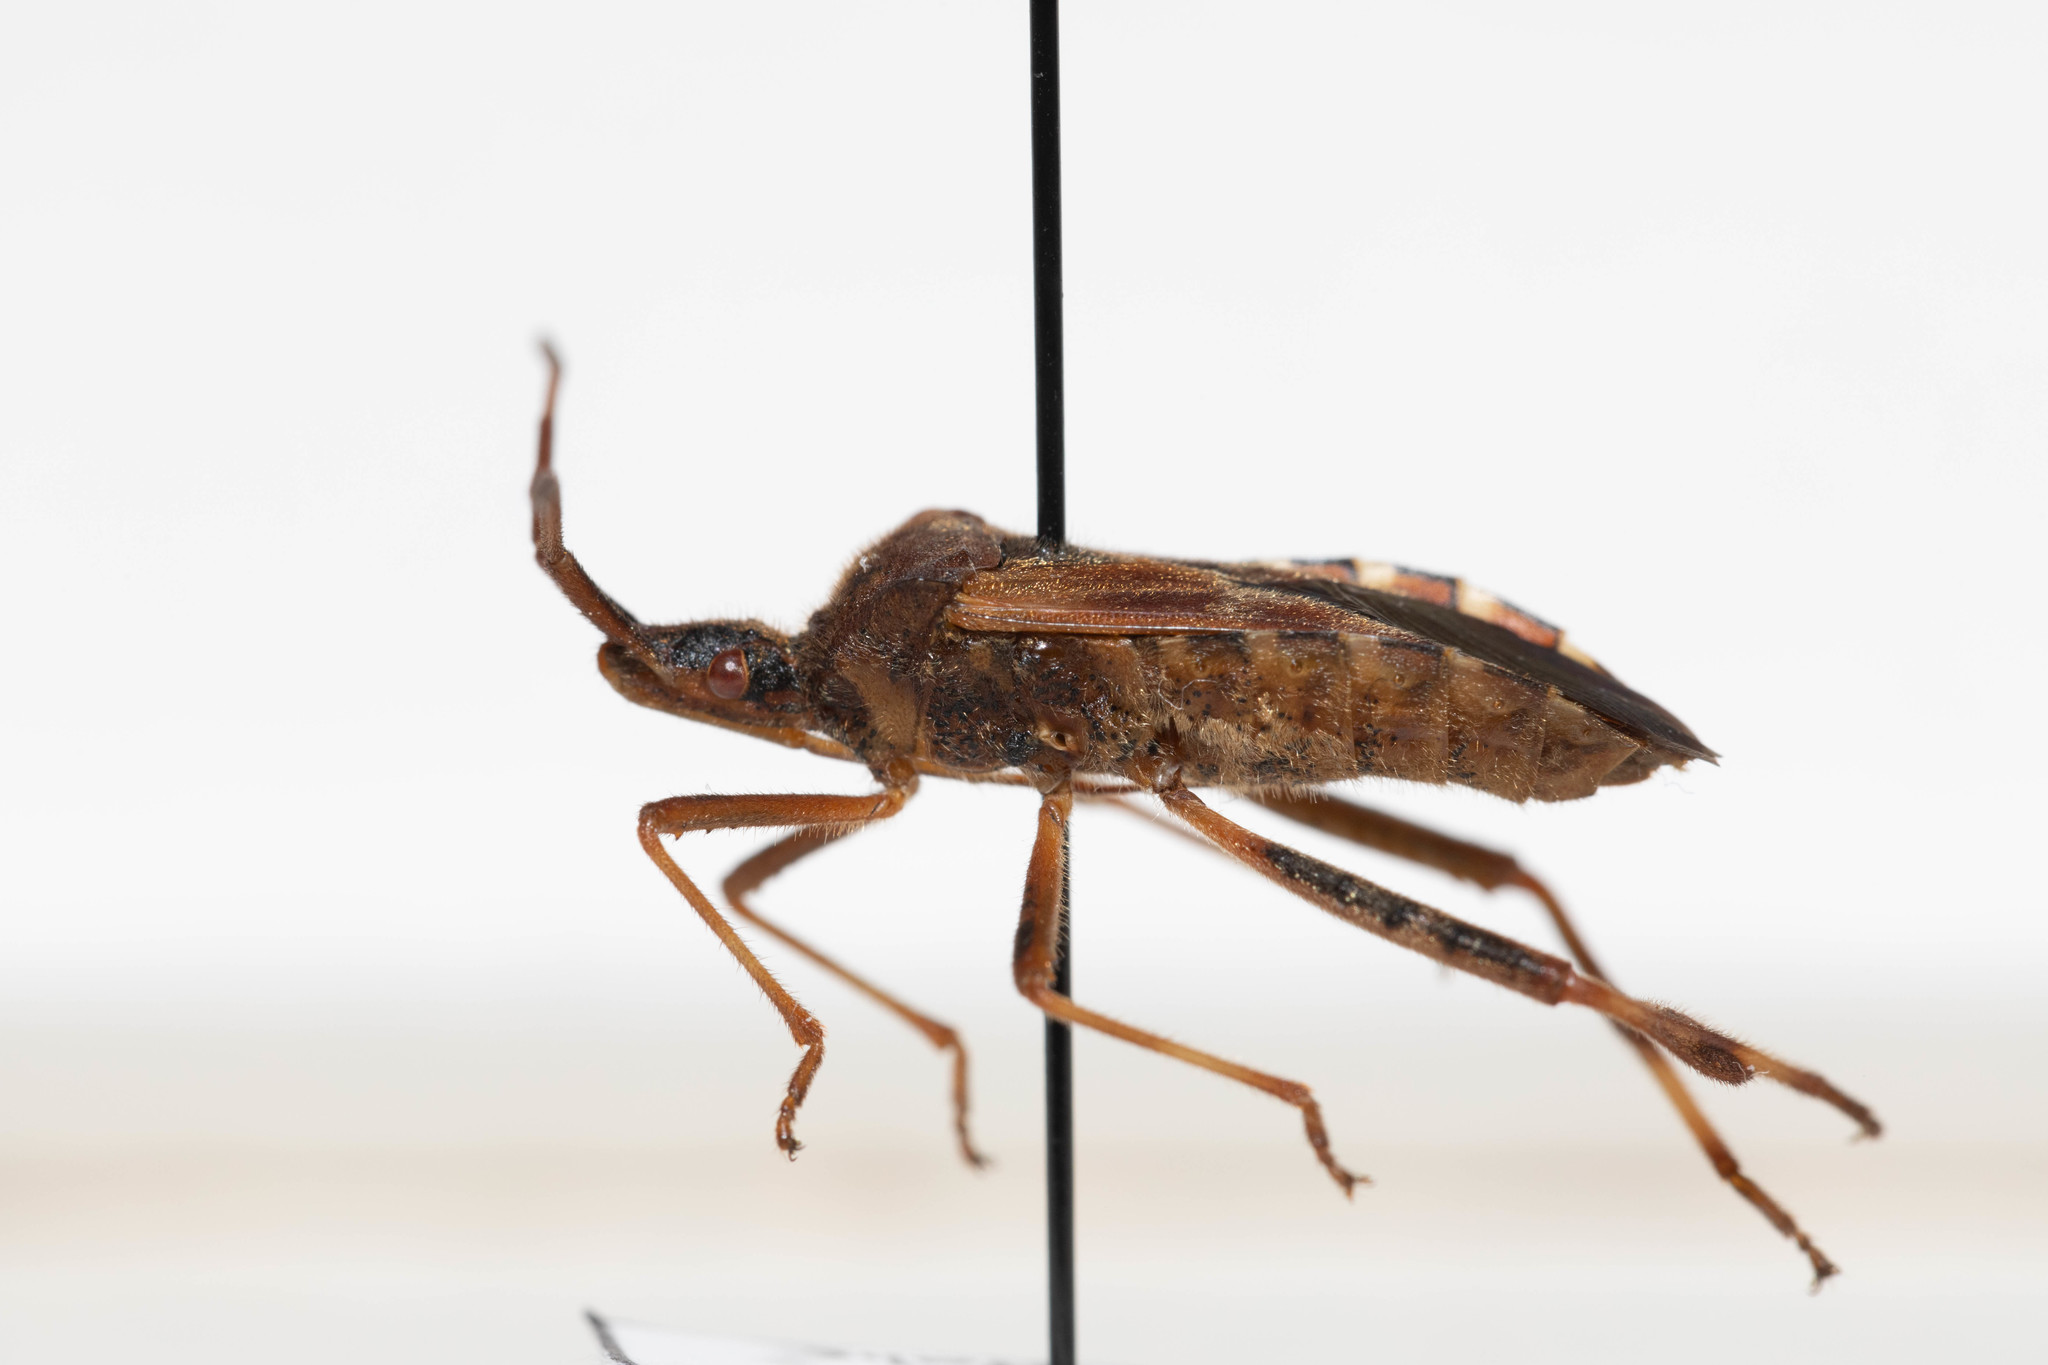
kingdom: Animalia
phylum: Arthropoda
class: Insecta
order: Hemiptera
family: Coreidae
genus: Leptoglossus
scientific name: Leptoglossus occidentalis
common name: Western conifer-seed bug
